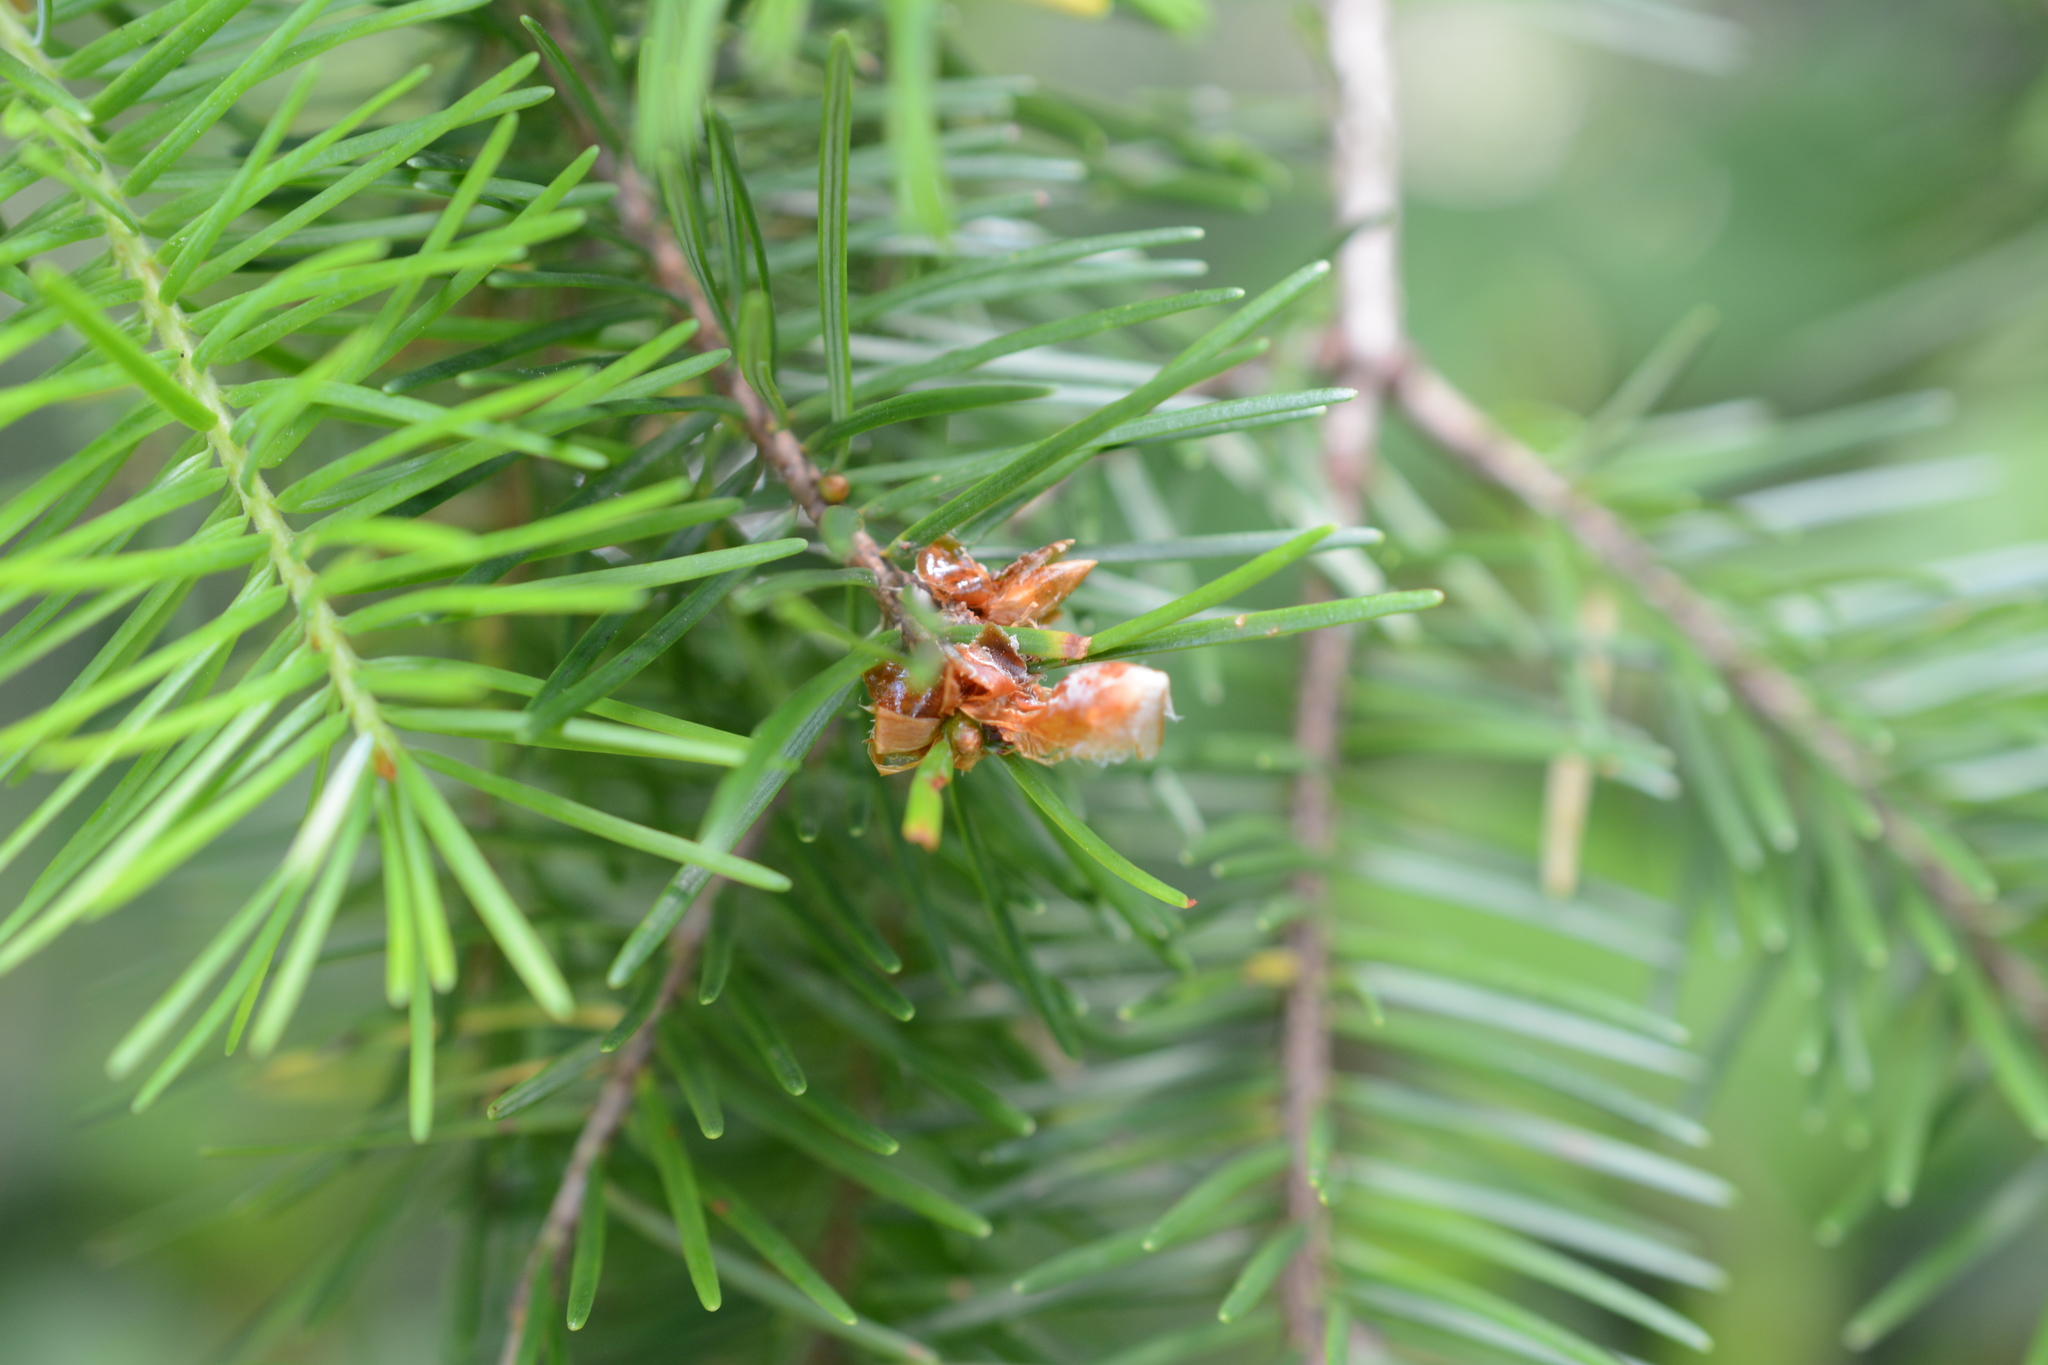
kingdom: Plantae
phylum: Tracheophyta
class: Pinopsida
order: Pinales
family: Pinaceae
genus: Pseudotsuga
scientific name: Pseudotsuga menziesii
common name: Douglas fir
